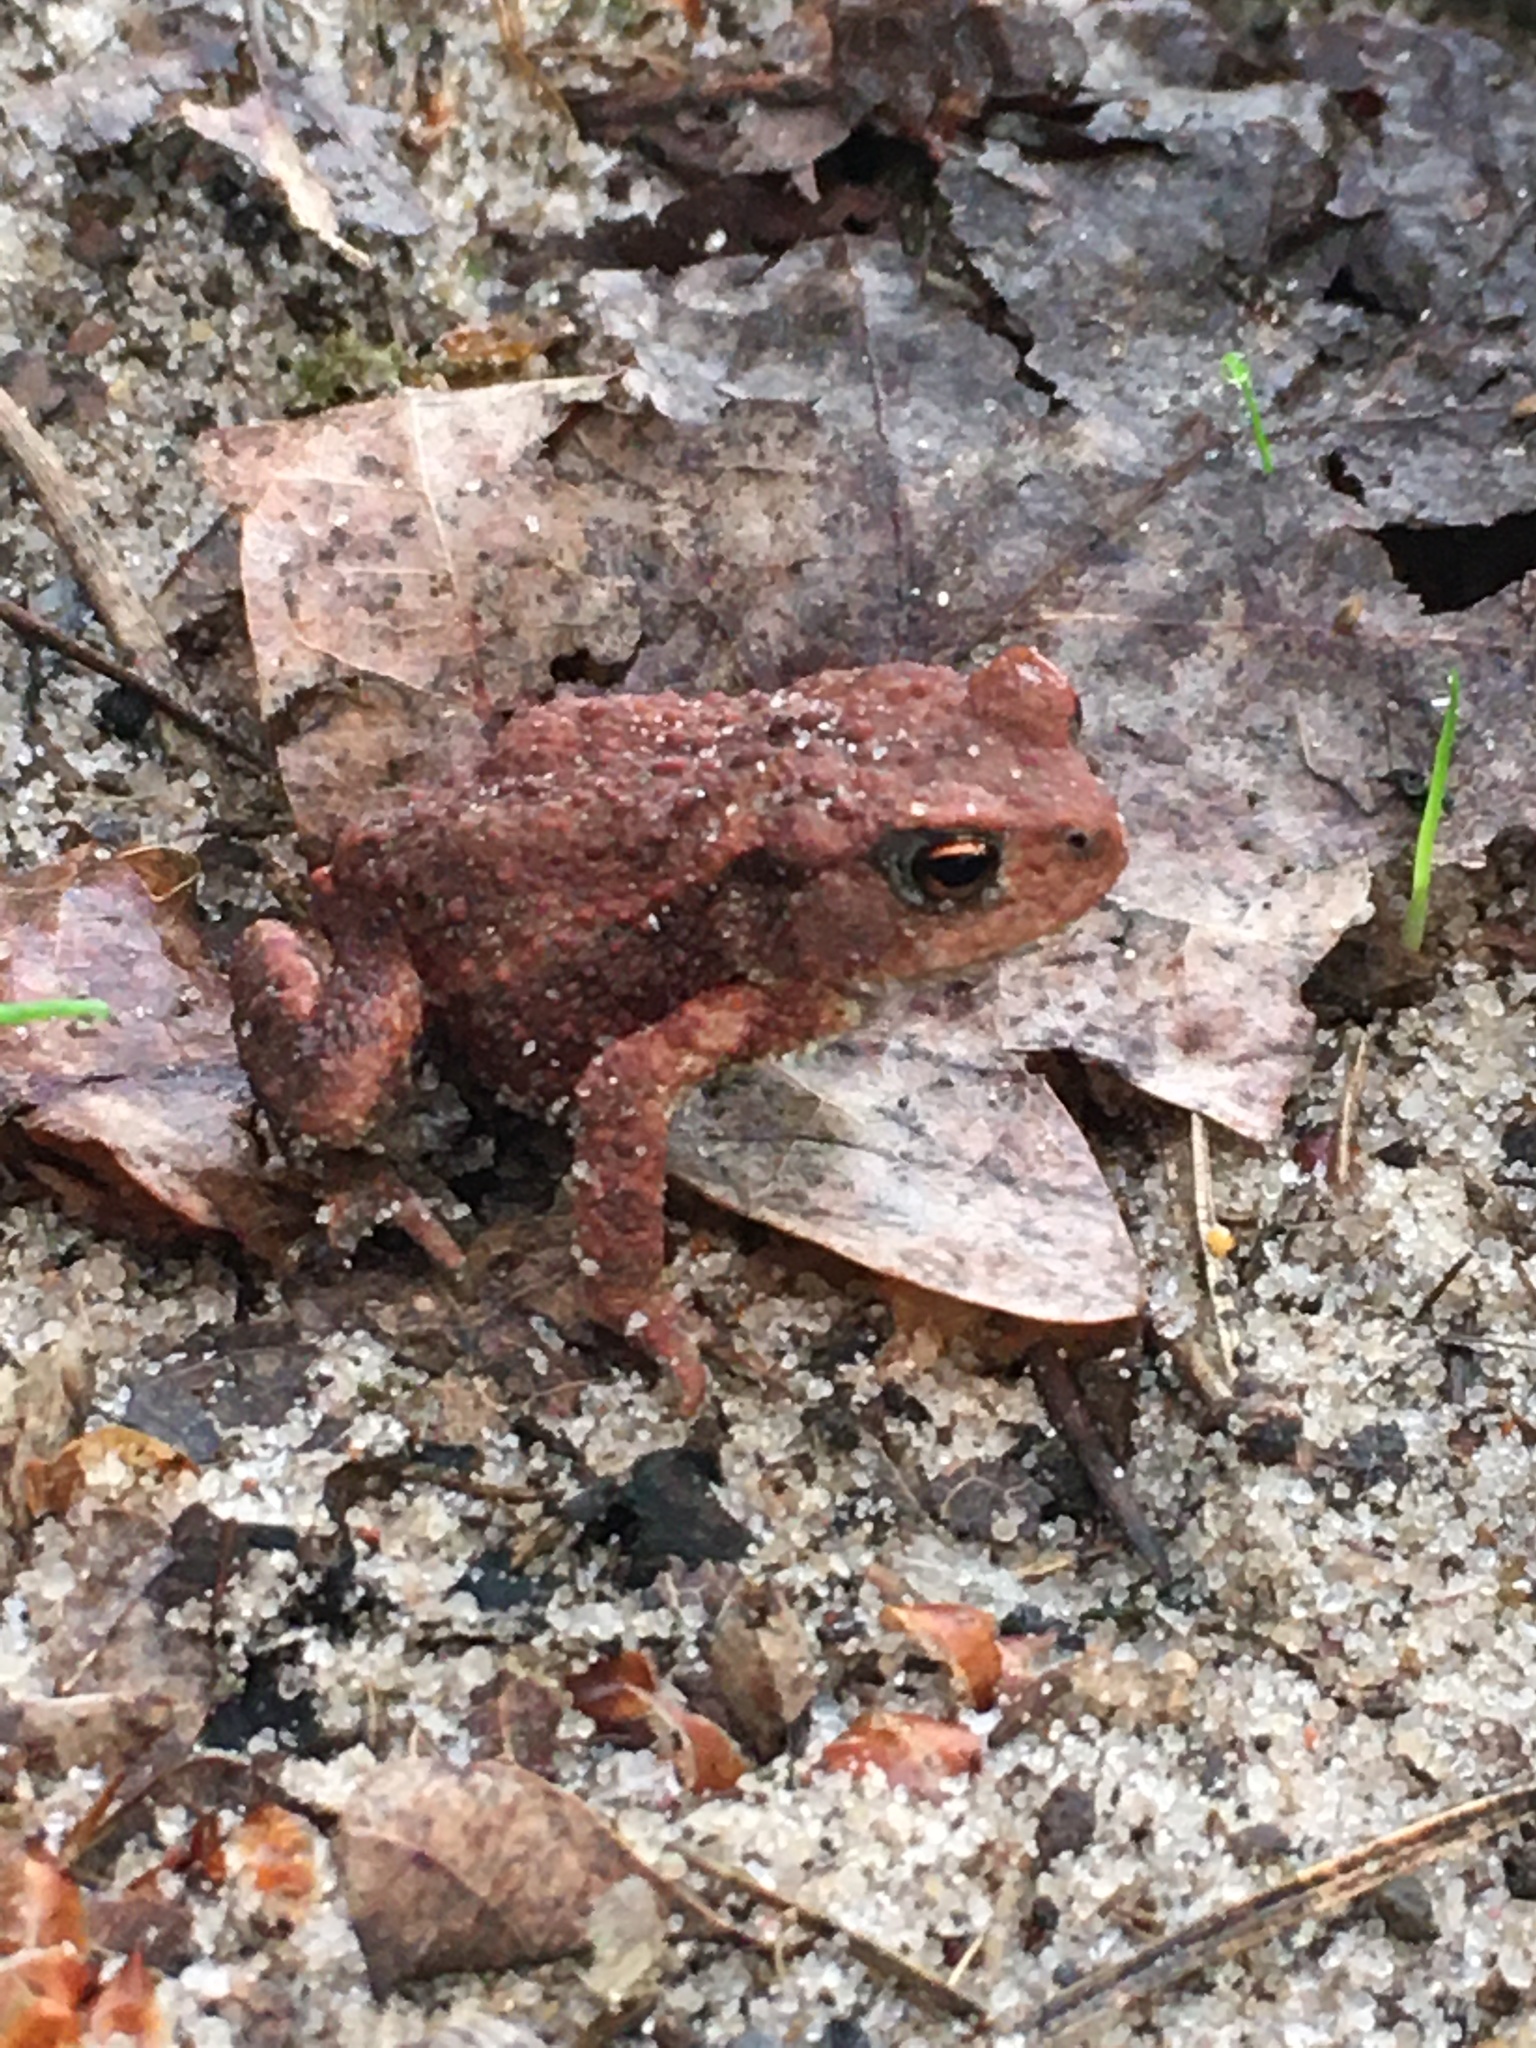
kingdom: Animalia
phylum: Chordata
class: Amphibia
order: Anura
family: Bufonidae
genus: Bufo
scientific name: Bufo bufo
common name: Common toad
